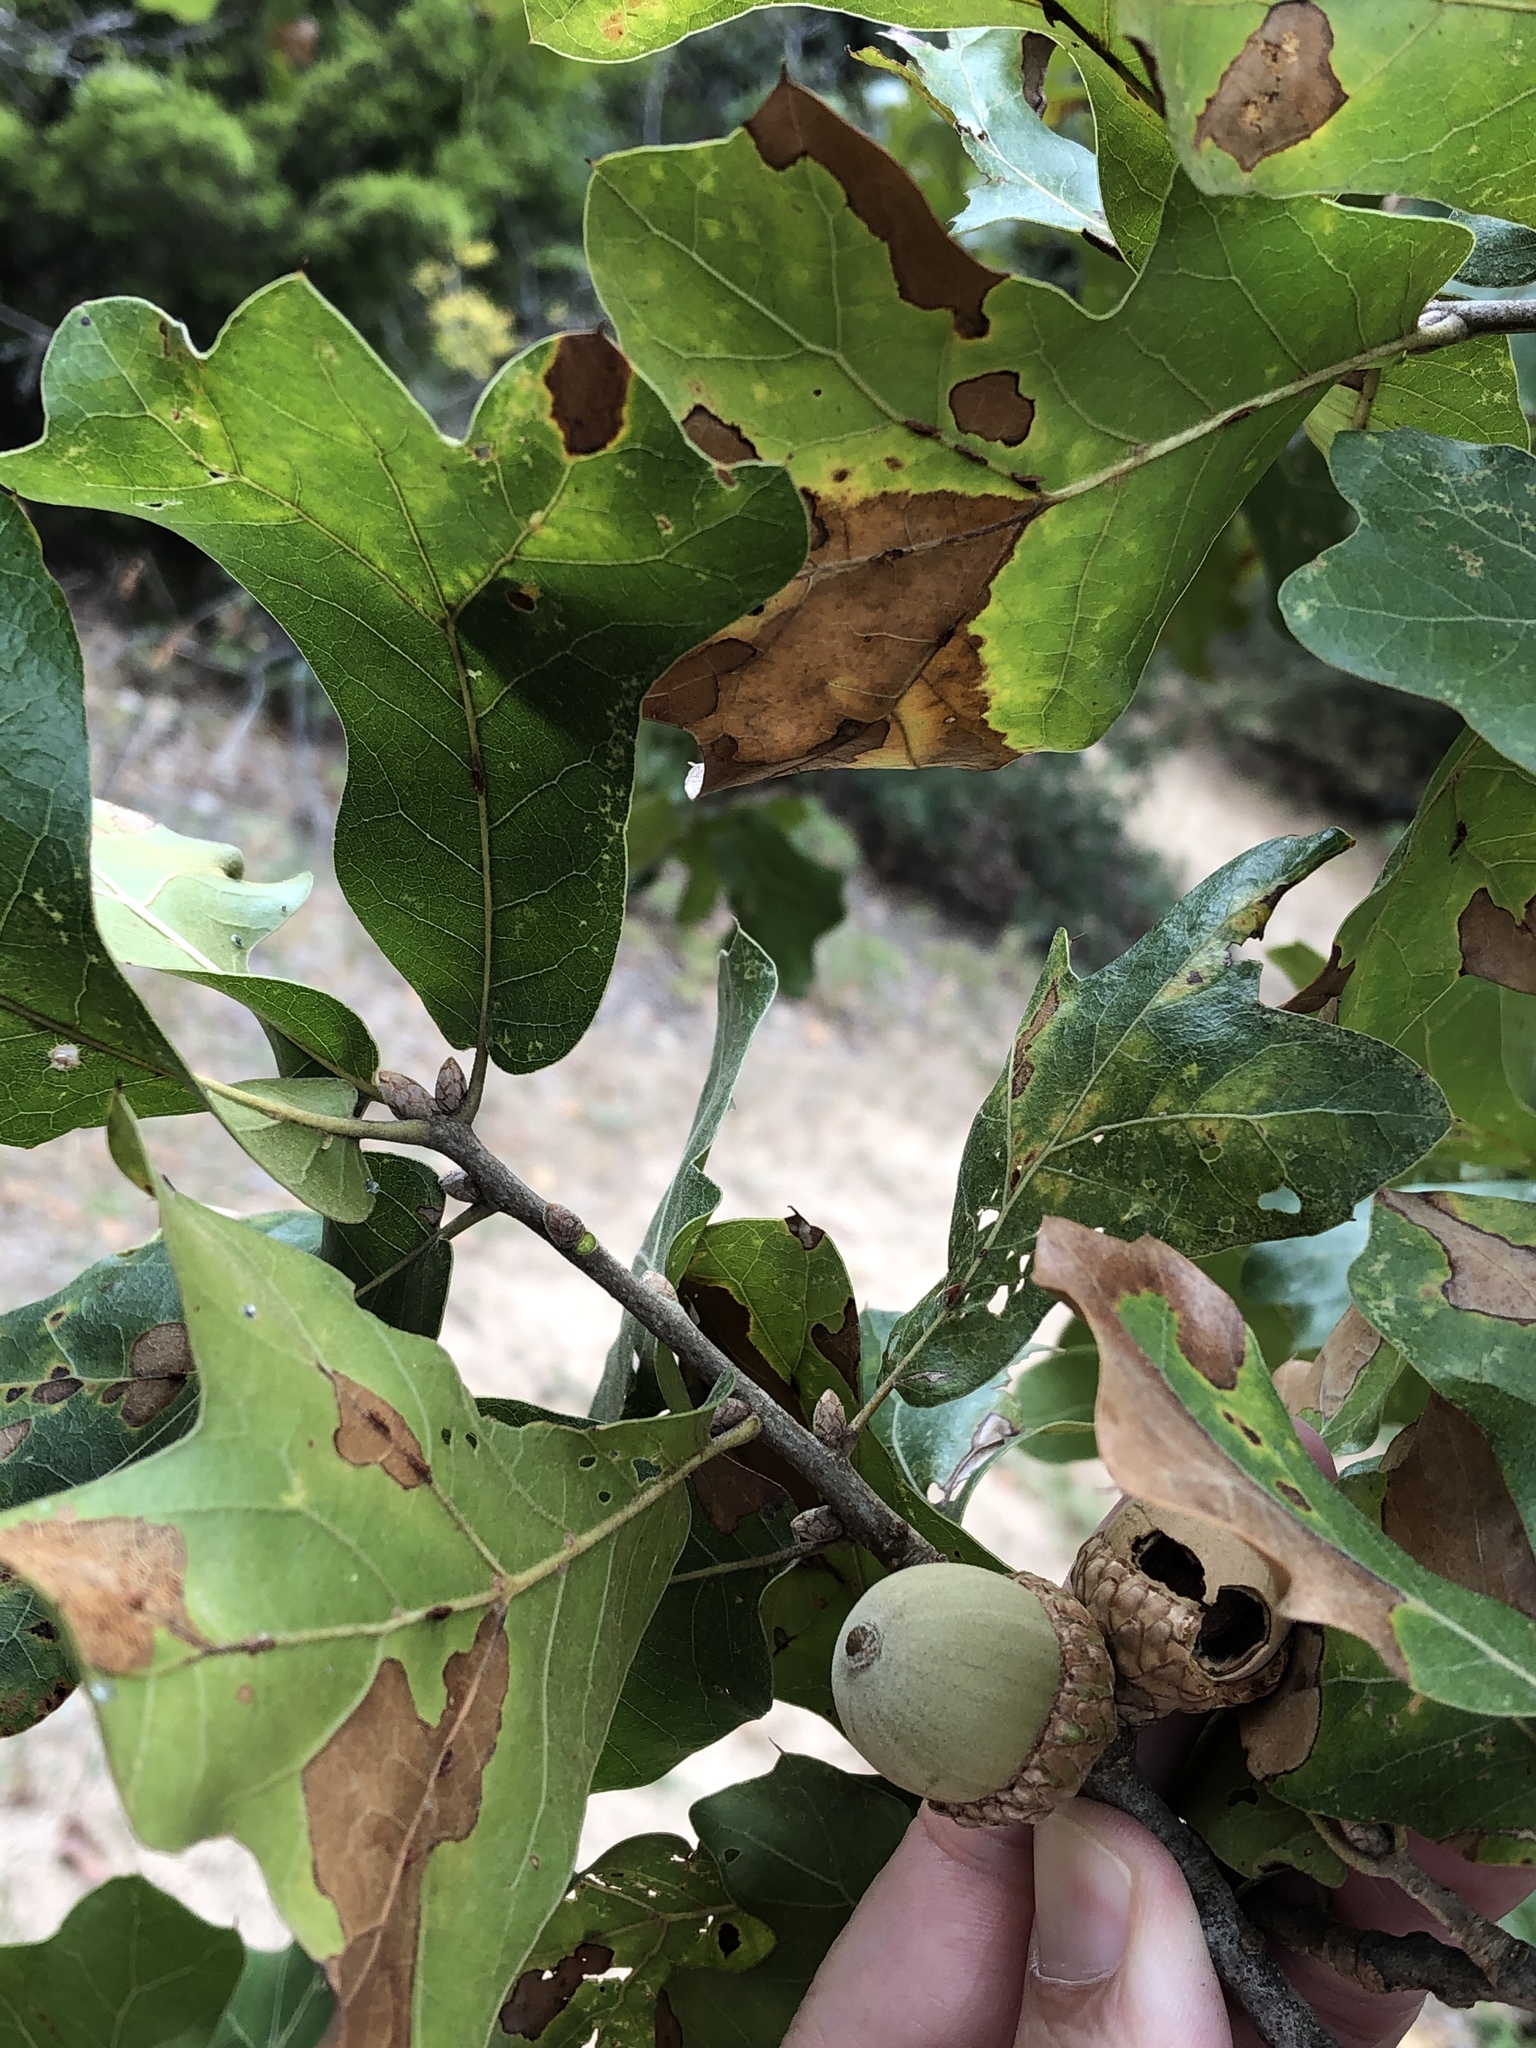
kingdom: Plantae
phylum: Tracheophyta
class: Magnoliopsida
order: Fagales
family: Fagaceae
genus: Quercus
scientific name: Quercus marilandica
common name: Blackjack oak
